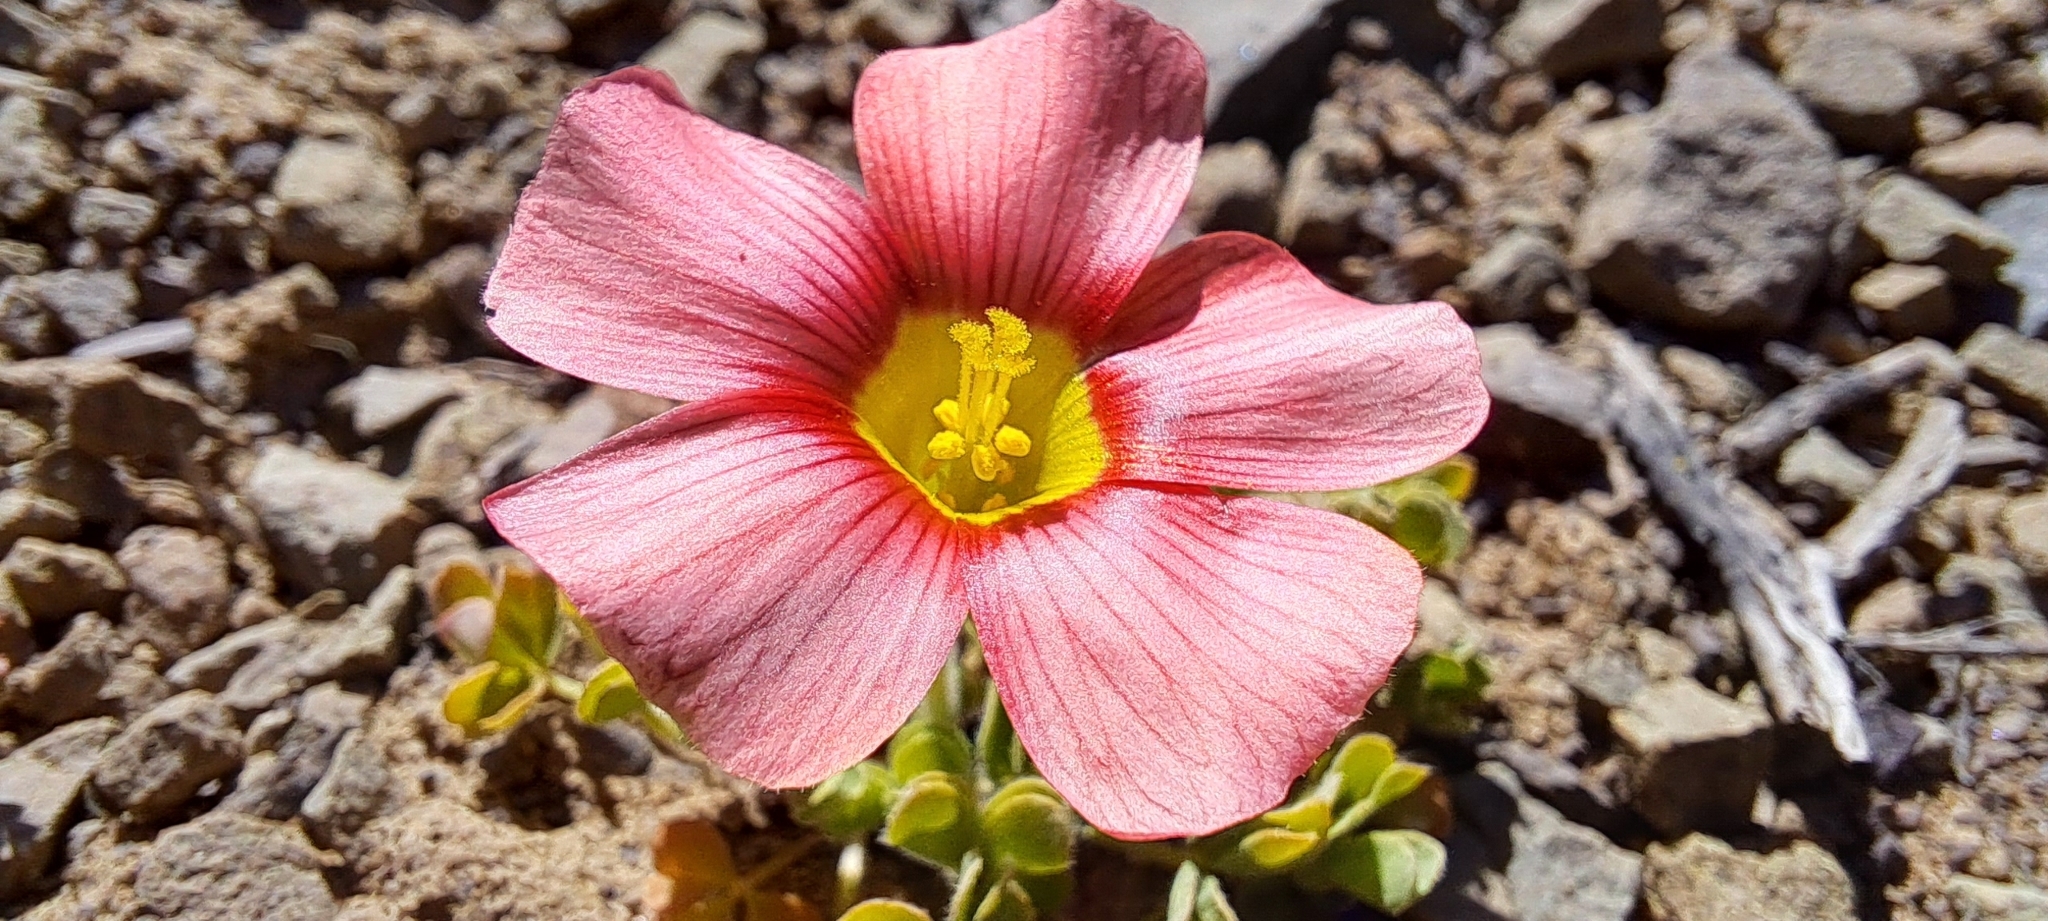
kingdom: Plantae
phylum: Tracheophyta
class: Magnoliopsida
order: Oxalidales
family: Oxalidaceae
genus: Oxalis
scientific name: Oxalis obtusa
